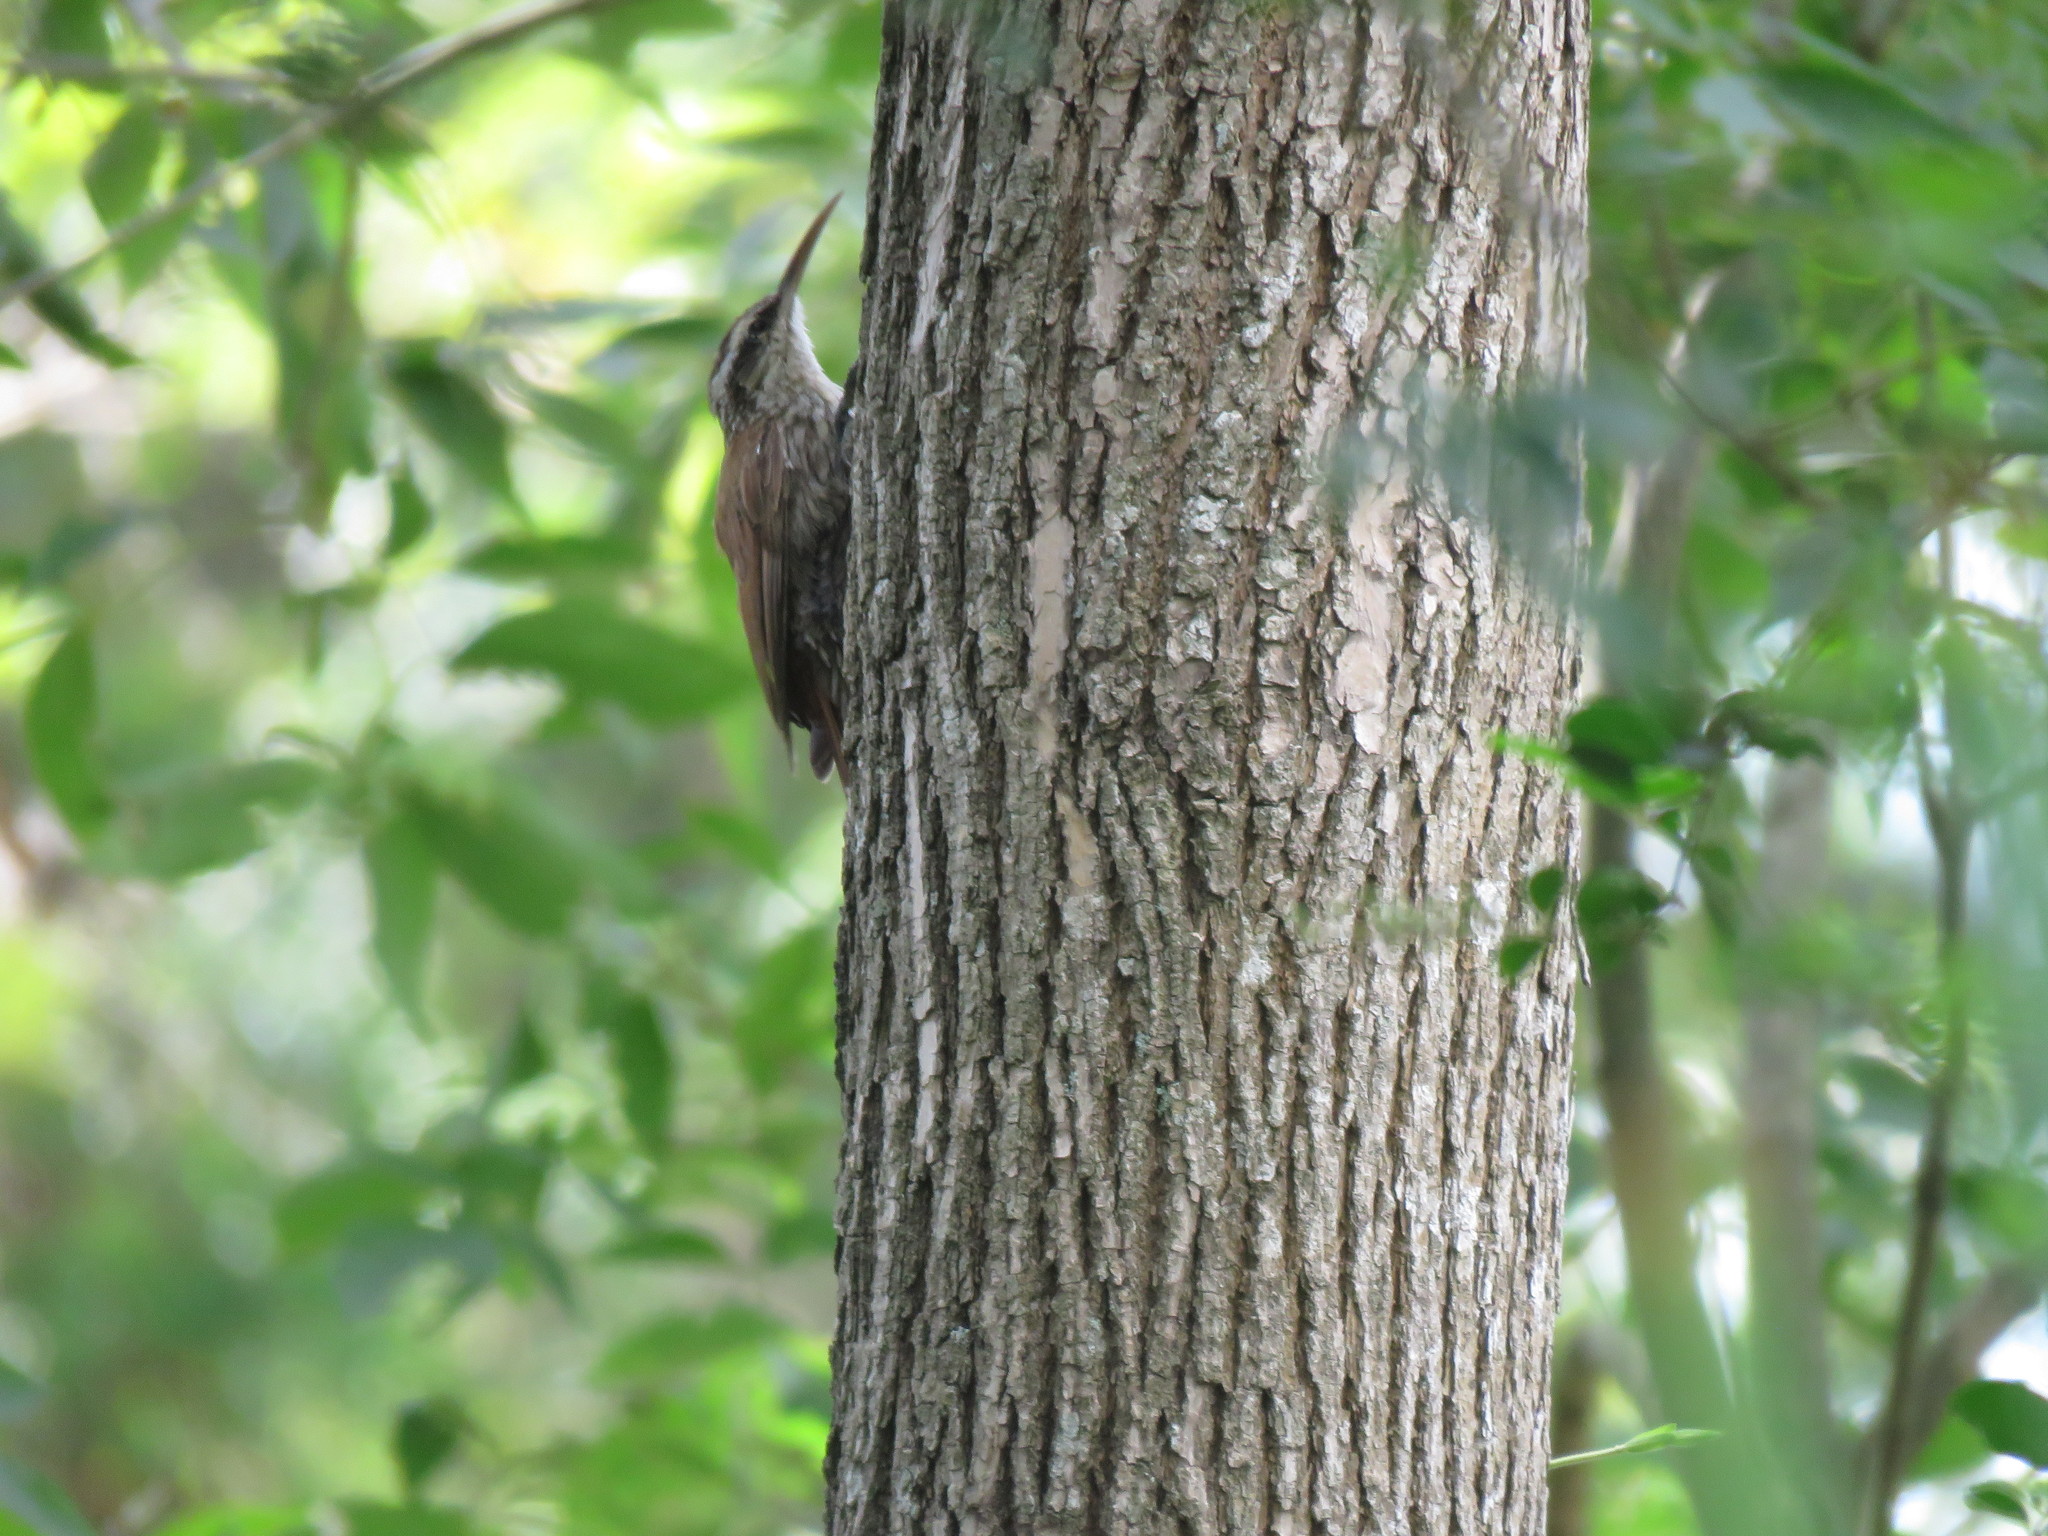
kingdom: Animalia
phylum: Chordata
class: Aves
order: Passeriformes
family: Furnariidae
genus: Lepidocolaptes
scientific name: Lepidocolaptes angustirostris
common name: Narrow-billed woodcreeper
